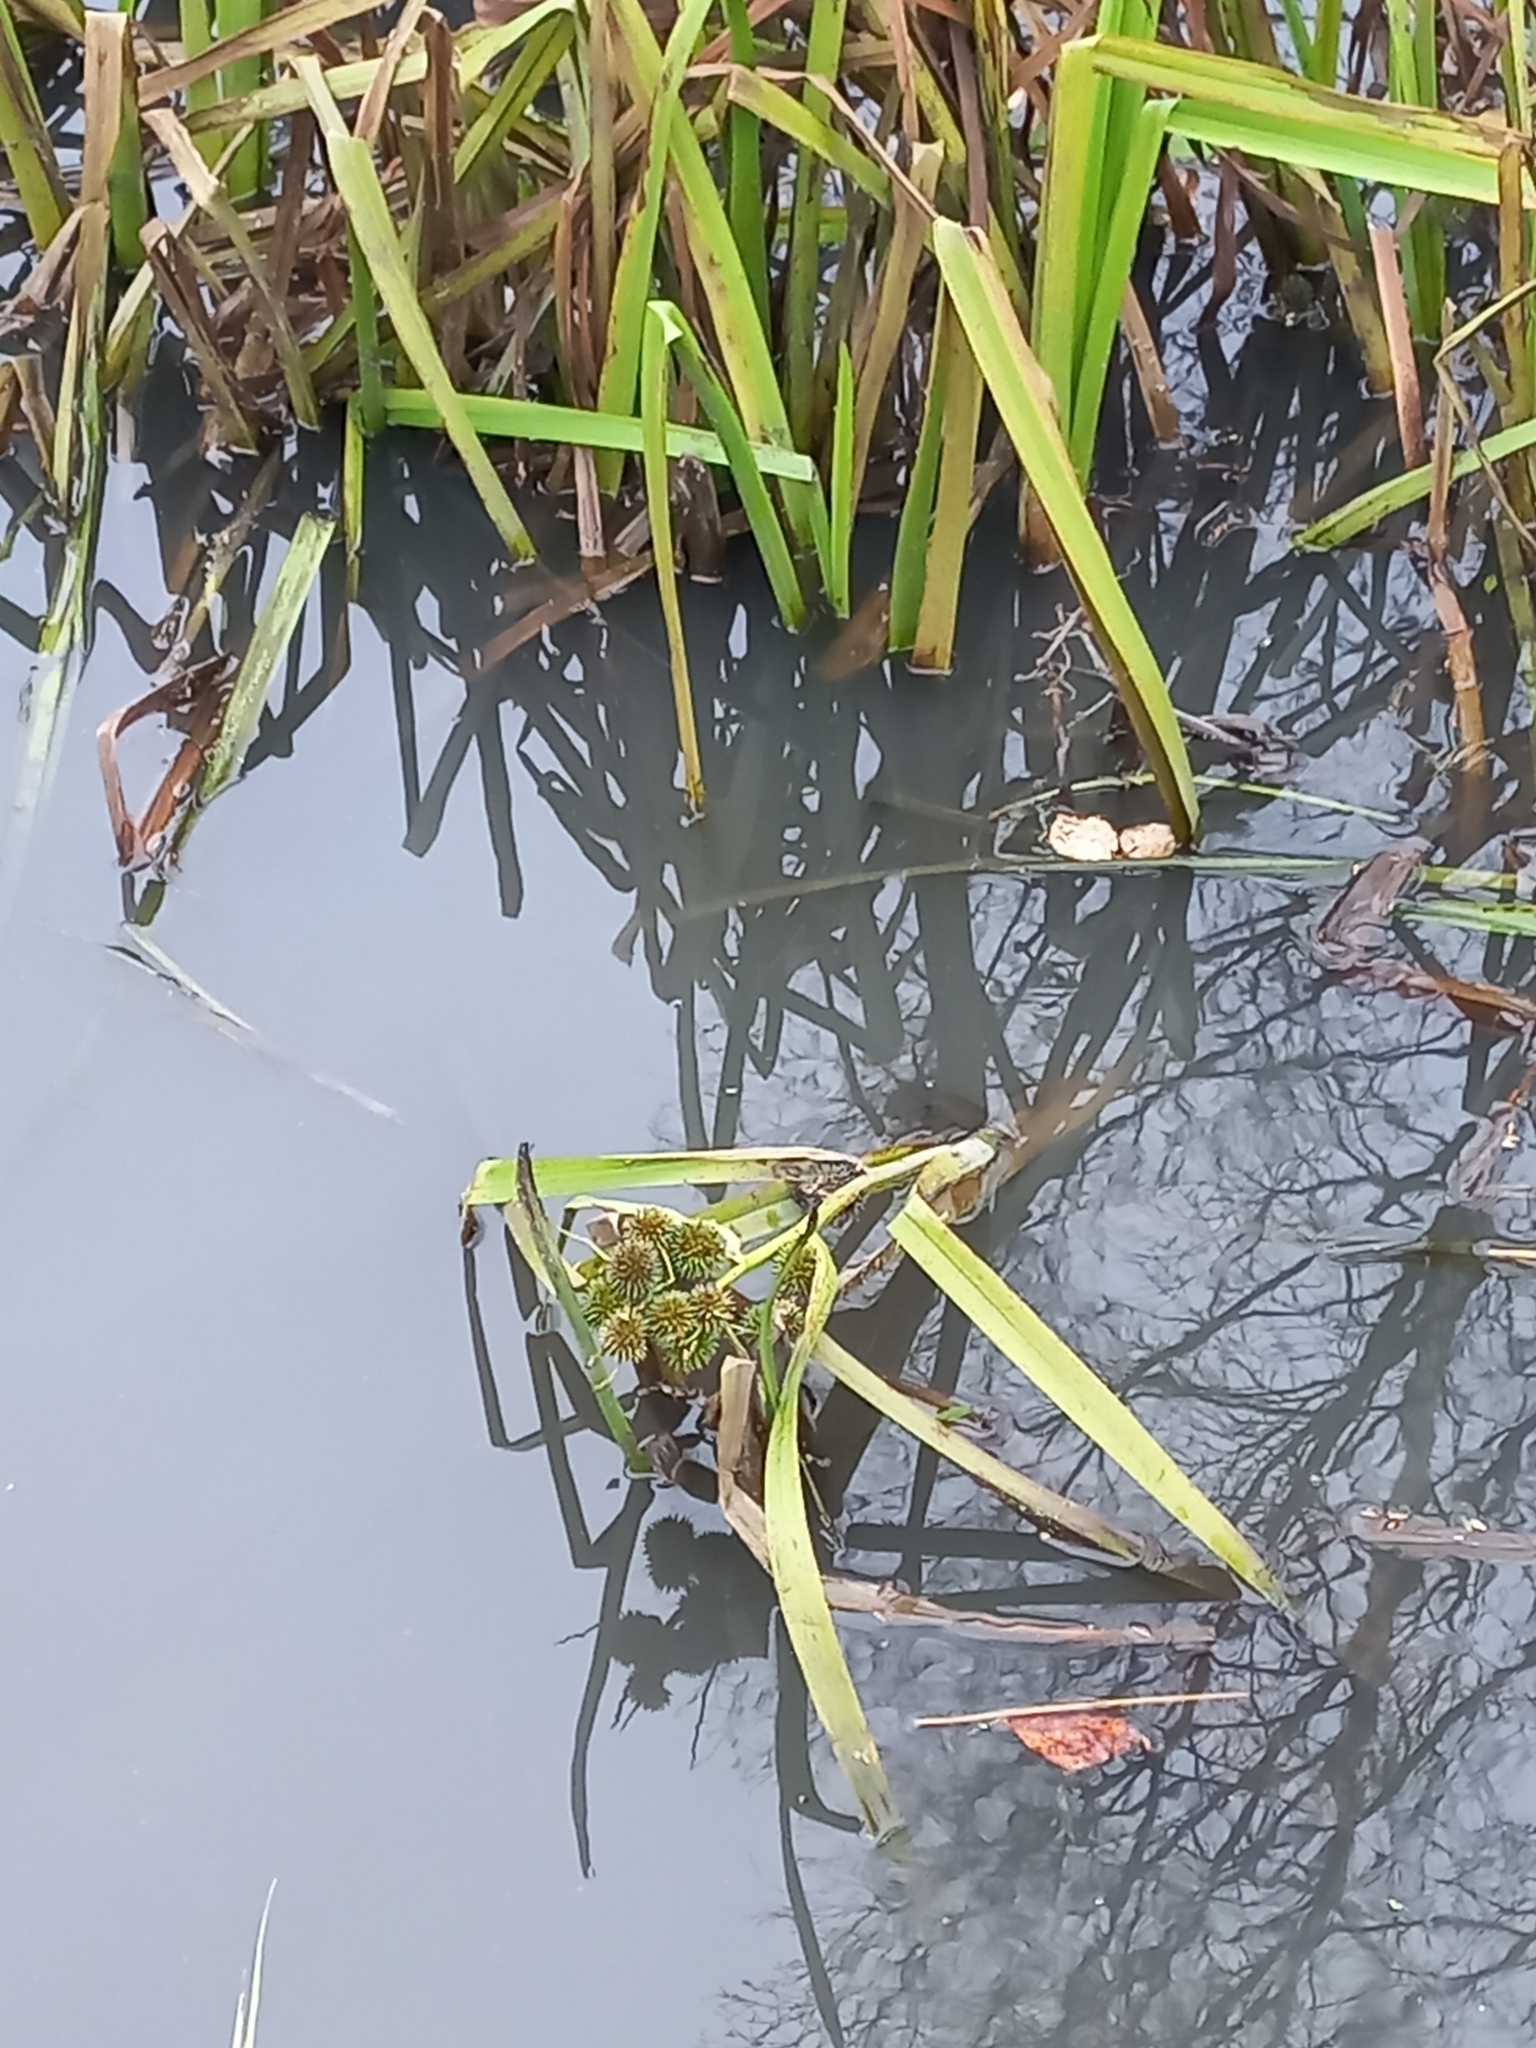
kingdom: Plantae
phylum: Tracheophyta
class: Liliopsida
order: Poales
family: Typhaceae
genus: Sparganium
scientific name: Sparganium erectum
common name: Branched bur-reed
